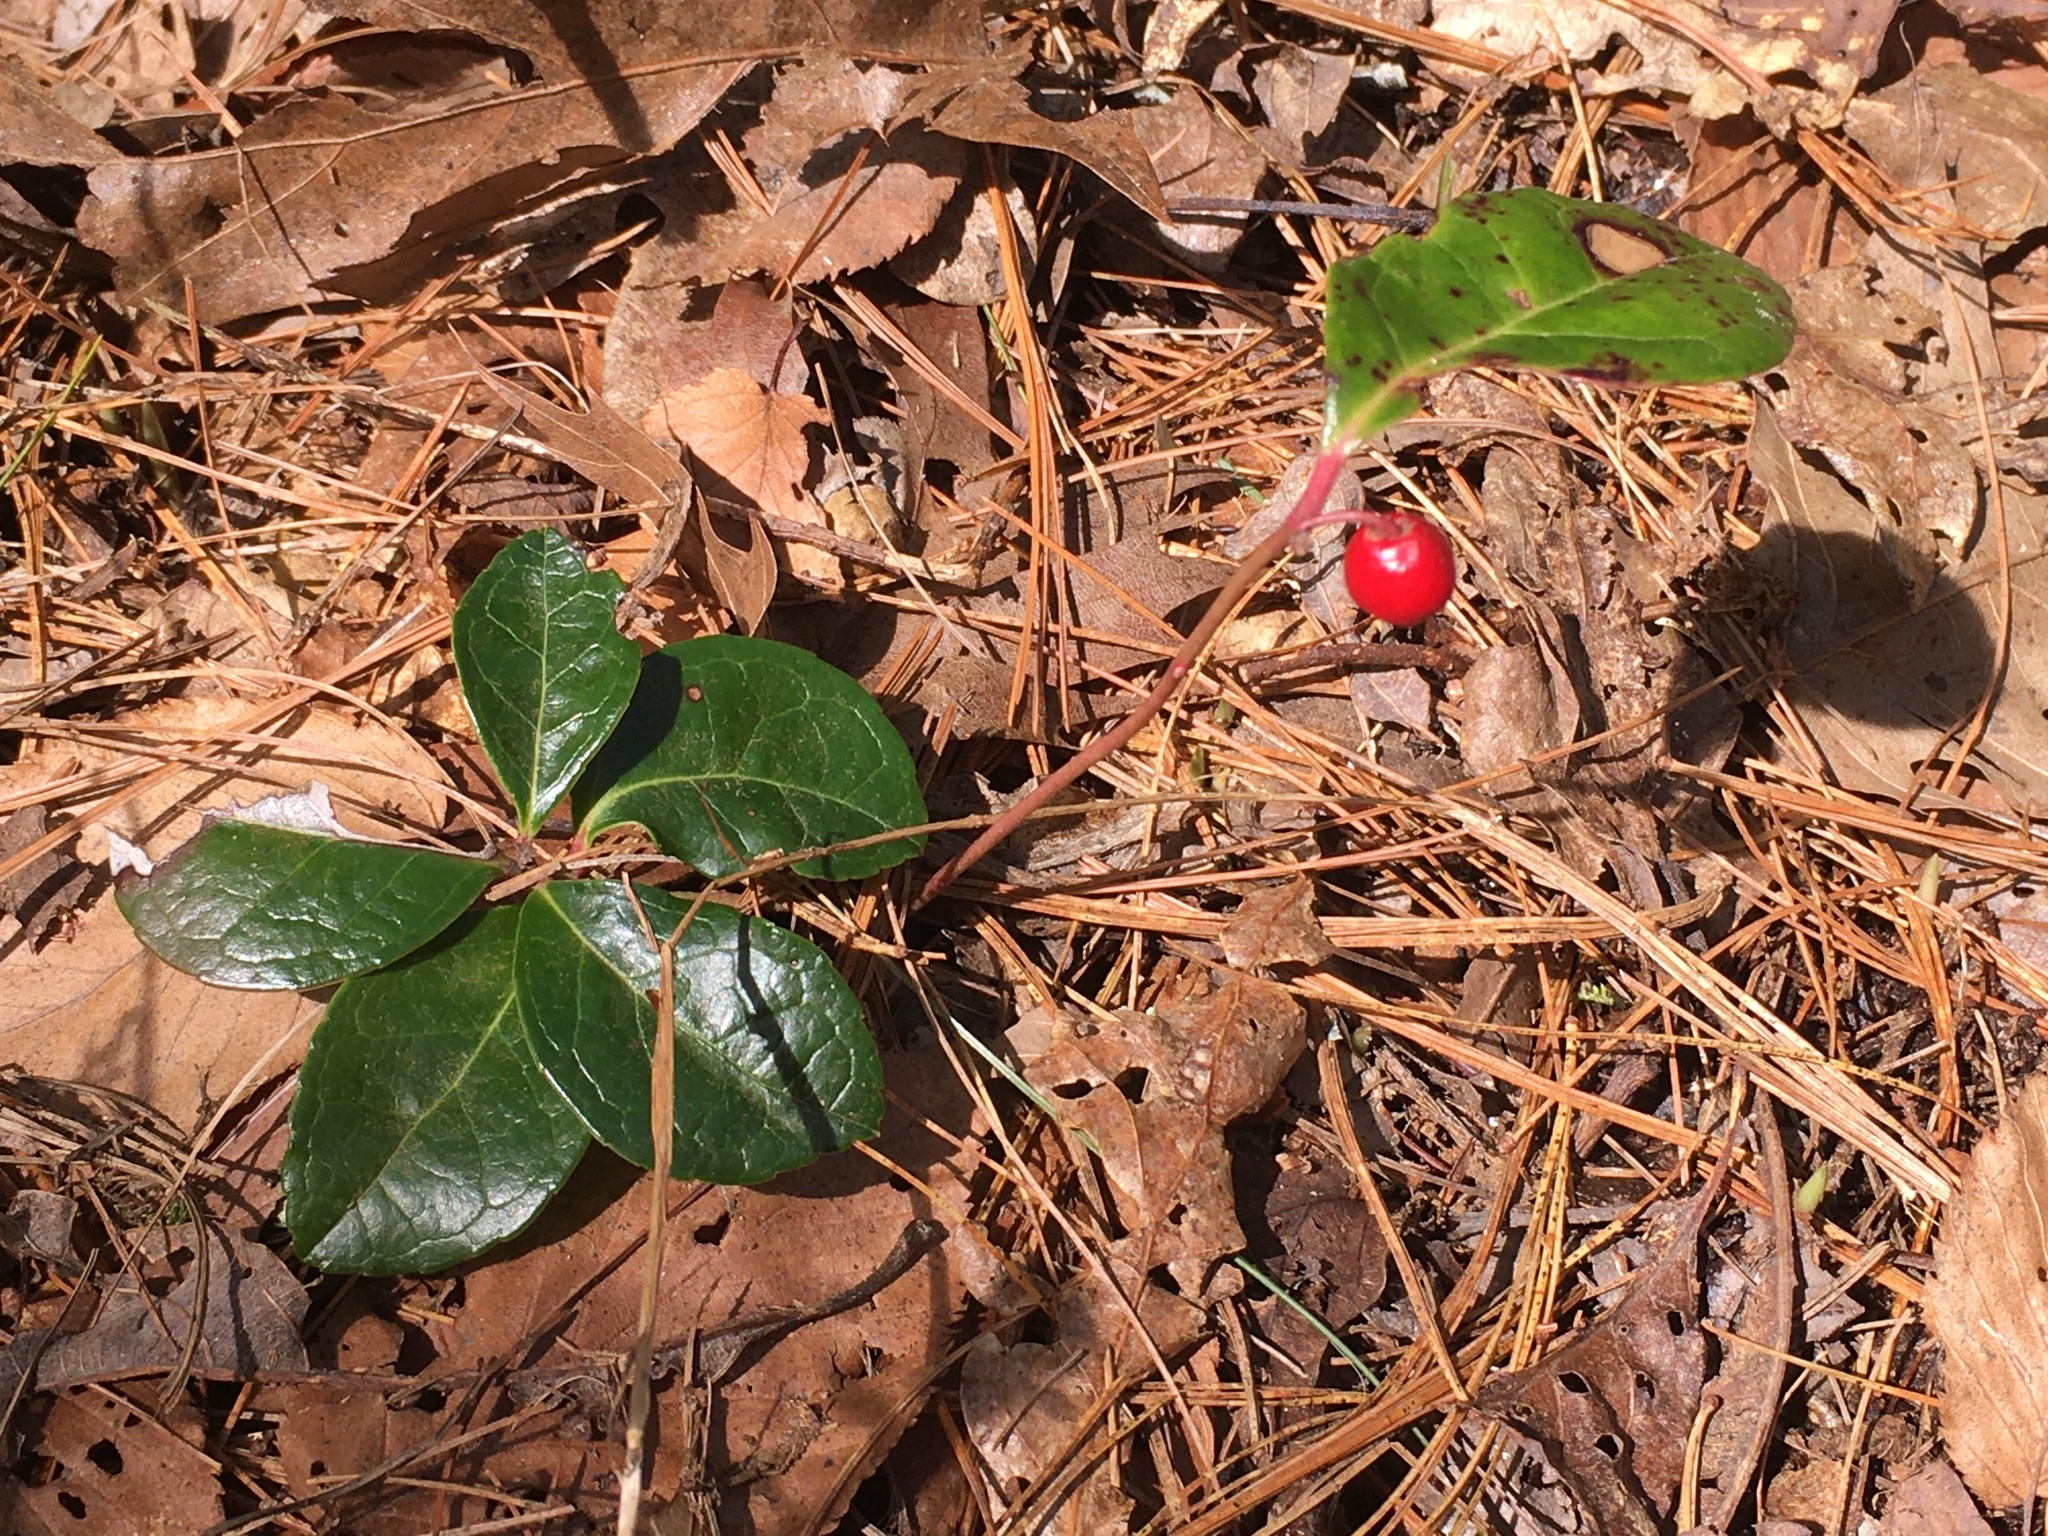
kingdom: Plantae
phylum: Tracheophyta
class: Magnoliopsida
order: Ericales
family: Ericaceae
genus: Gaultheria
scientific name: Gaultheria procumbens
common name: Checkerberry
